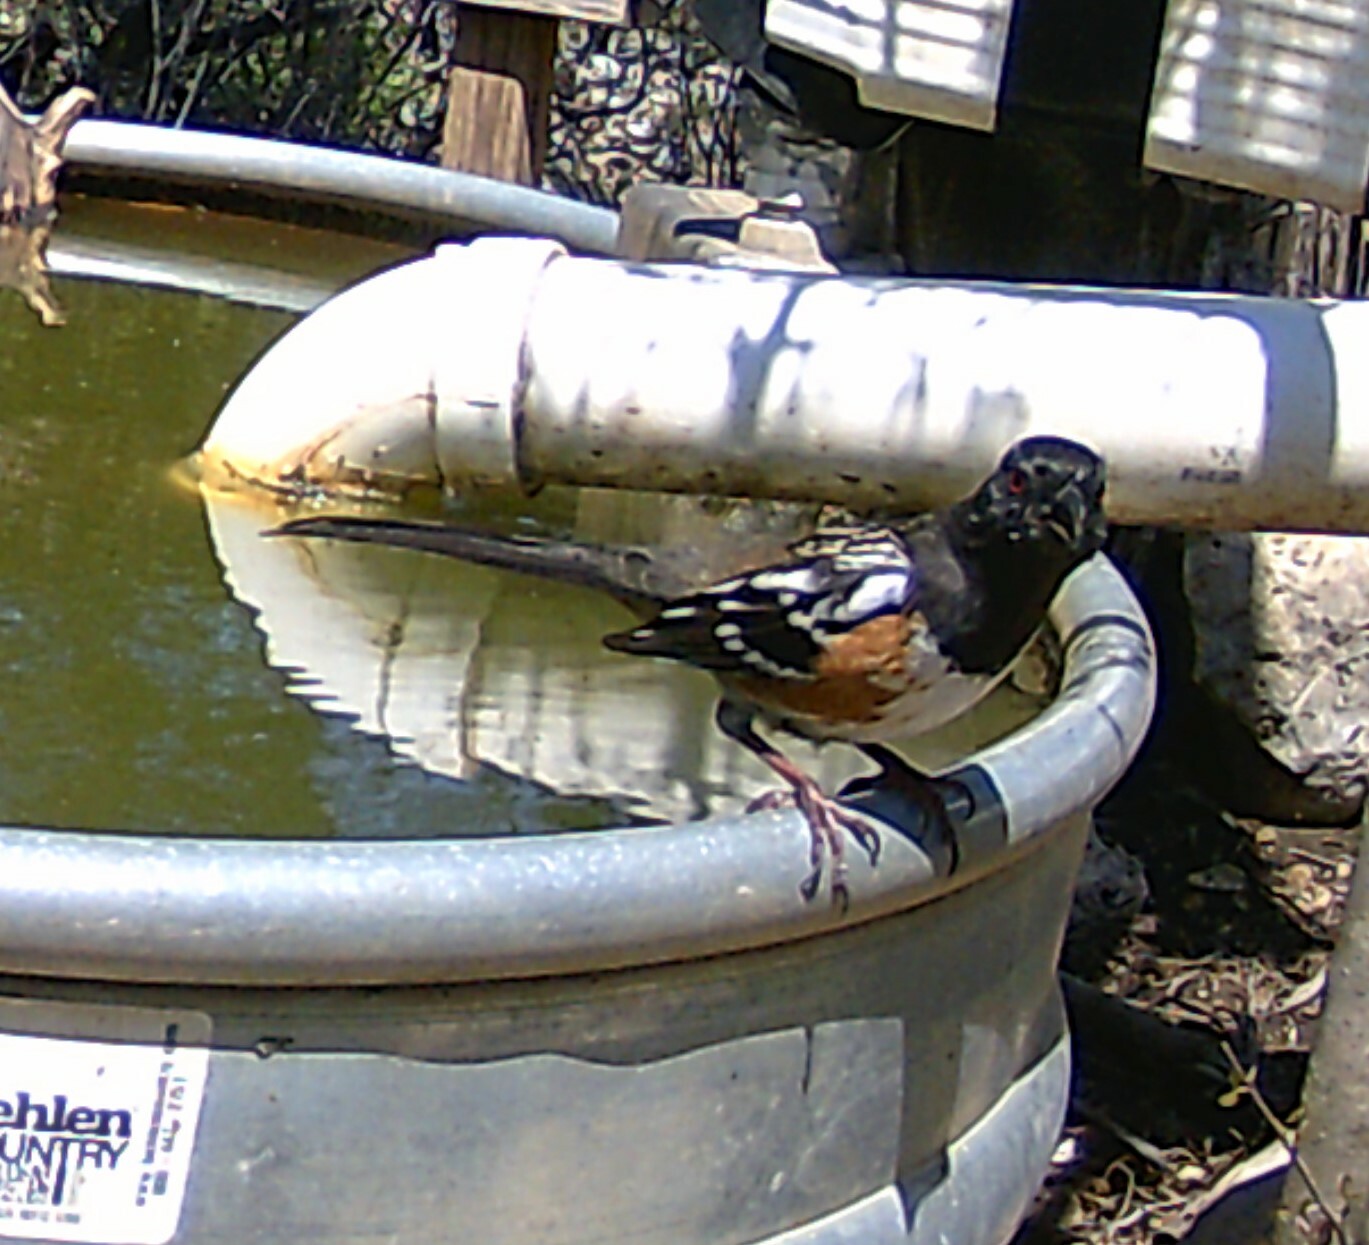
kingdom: Animalia
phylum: Chordata
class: Aves
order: Passeriformes
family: Passerellidae
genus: Pipilo
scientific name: Pipilo maculatus
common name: Spotted towhee
